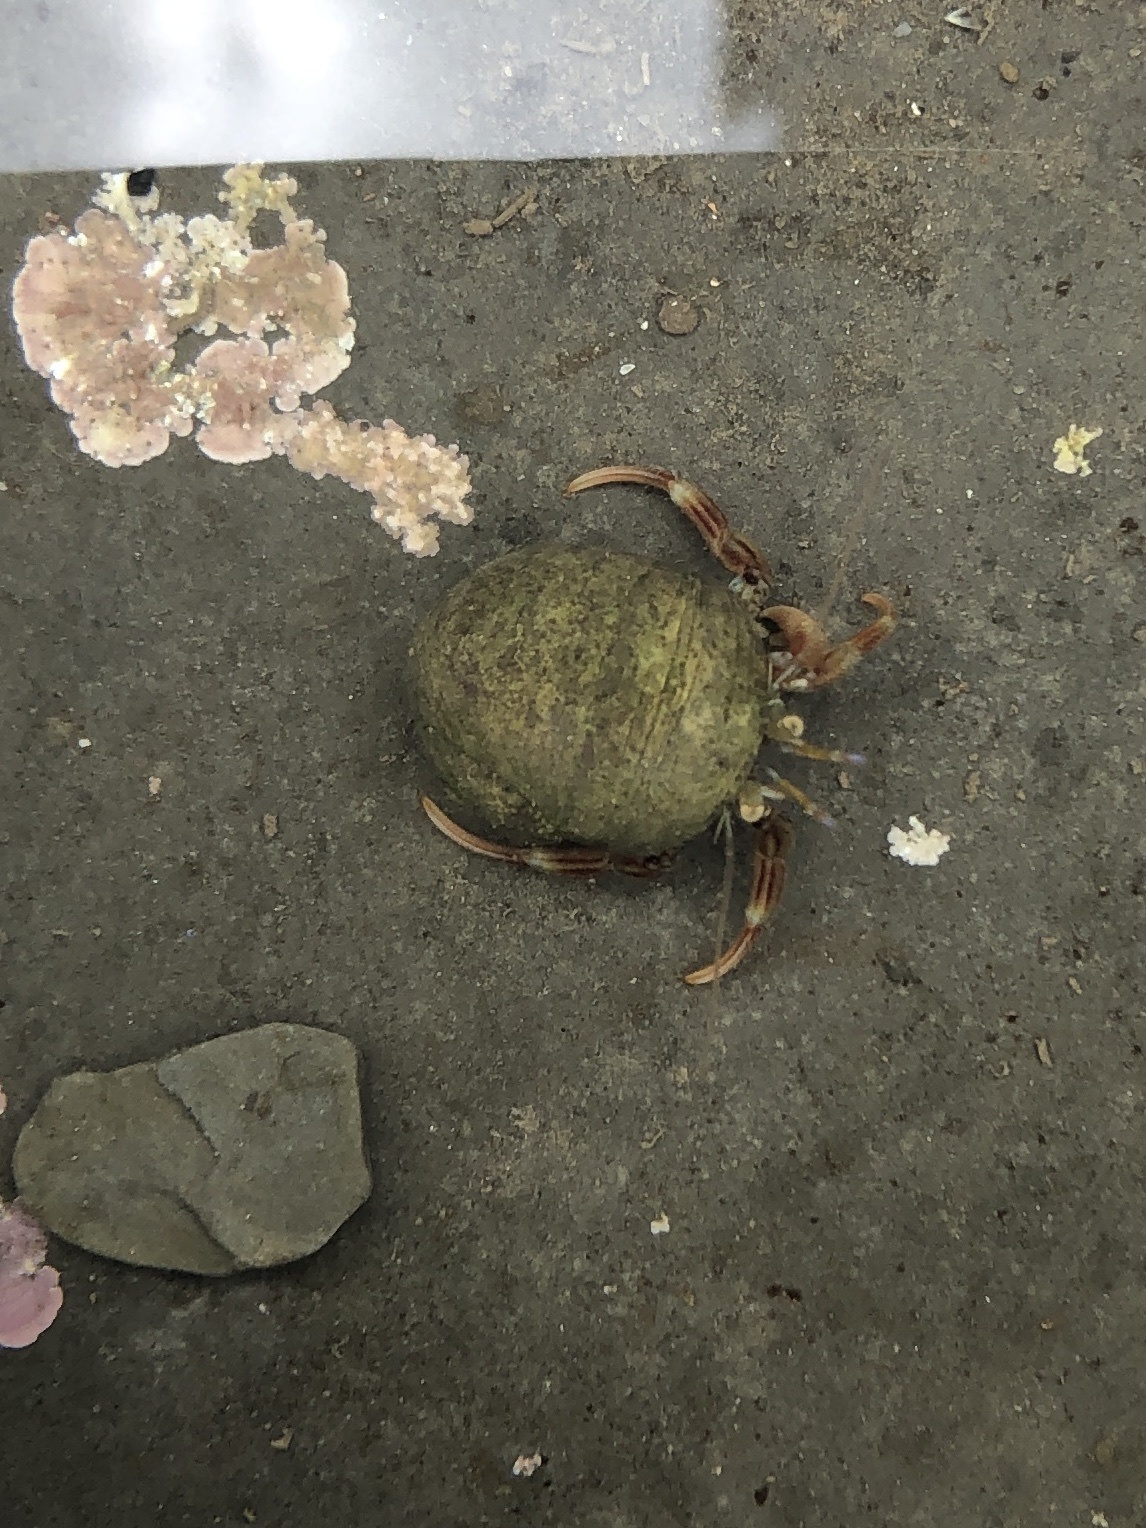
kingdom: Animalia
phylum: Arthropoda
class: Malacostraca
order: Decapoda
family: Paguridae
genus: Pagurus
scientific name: Pagurus bernhardus
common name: Hermit crab
